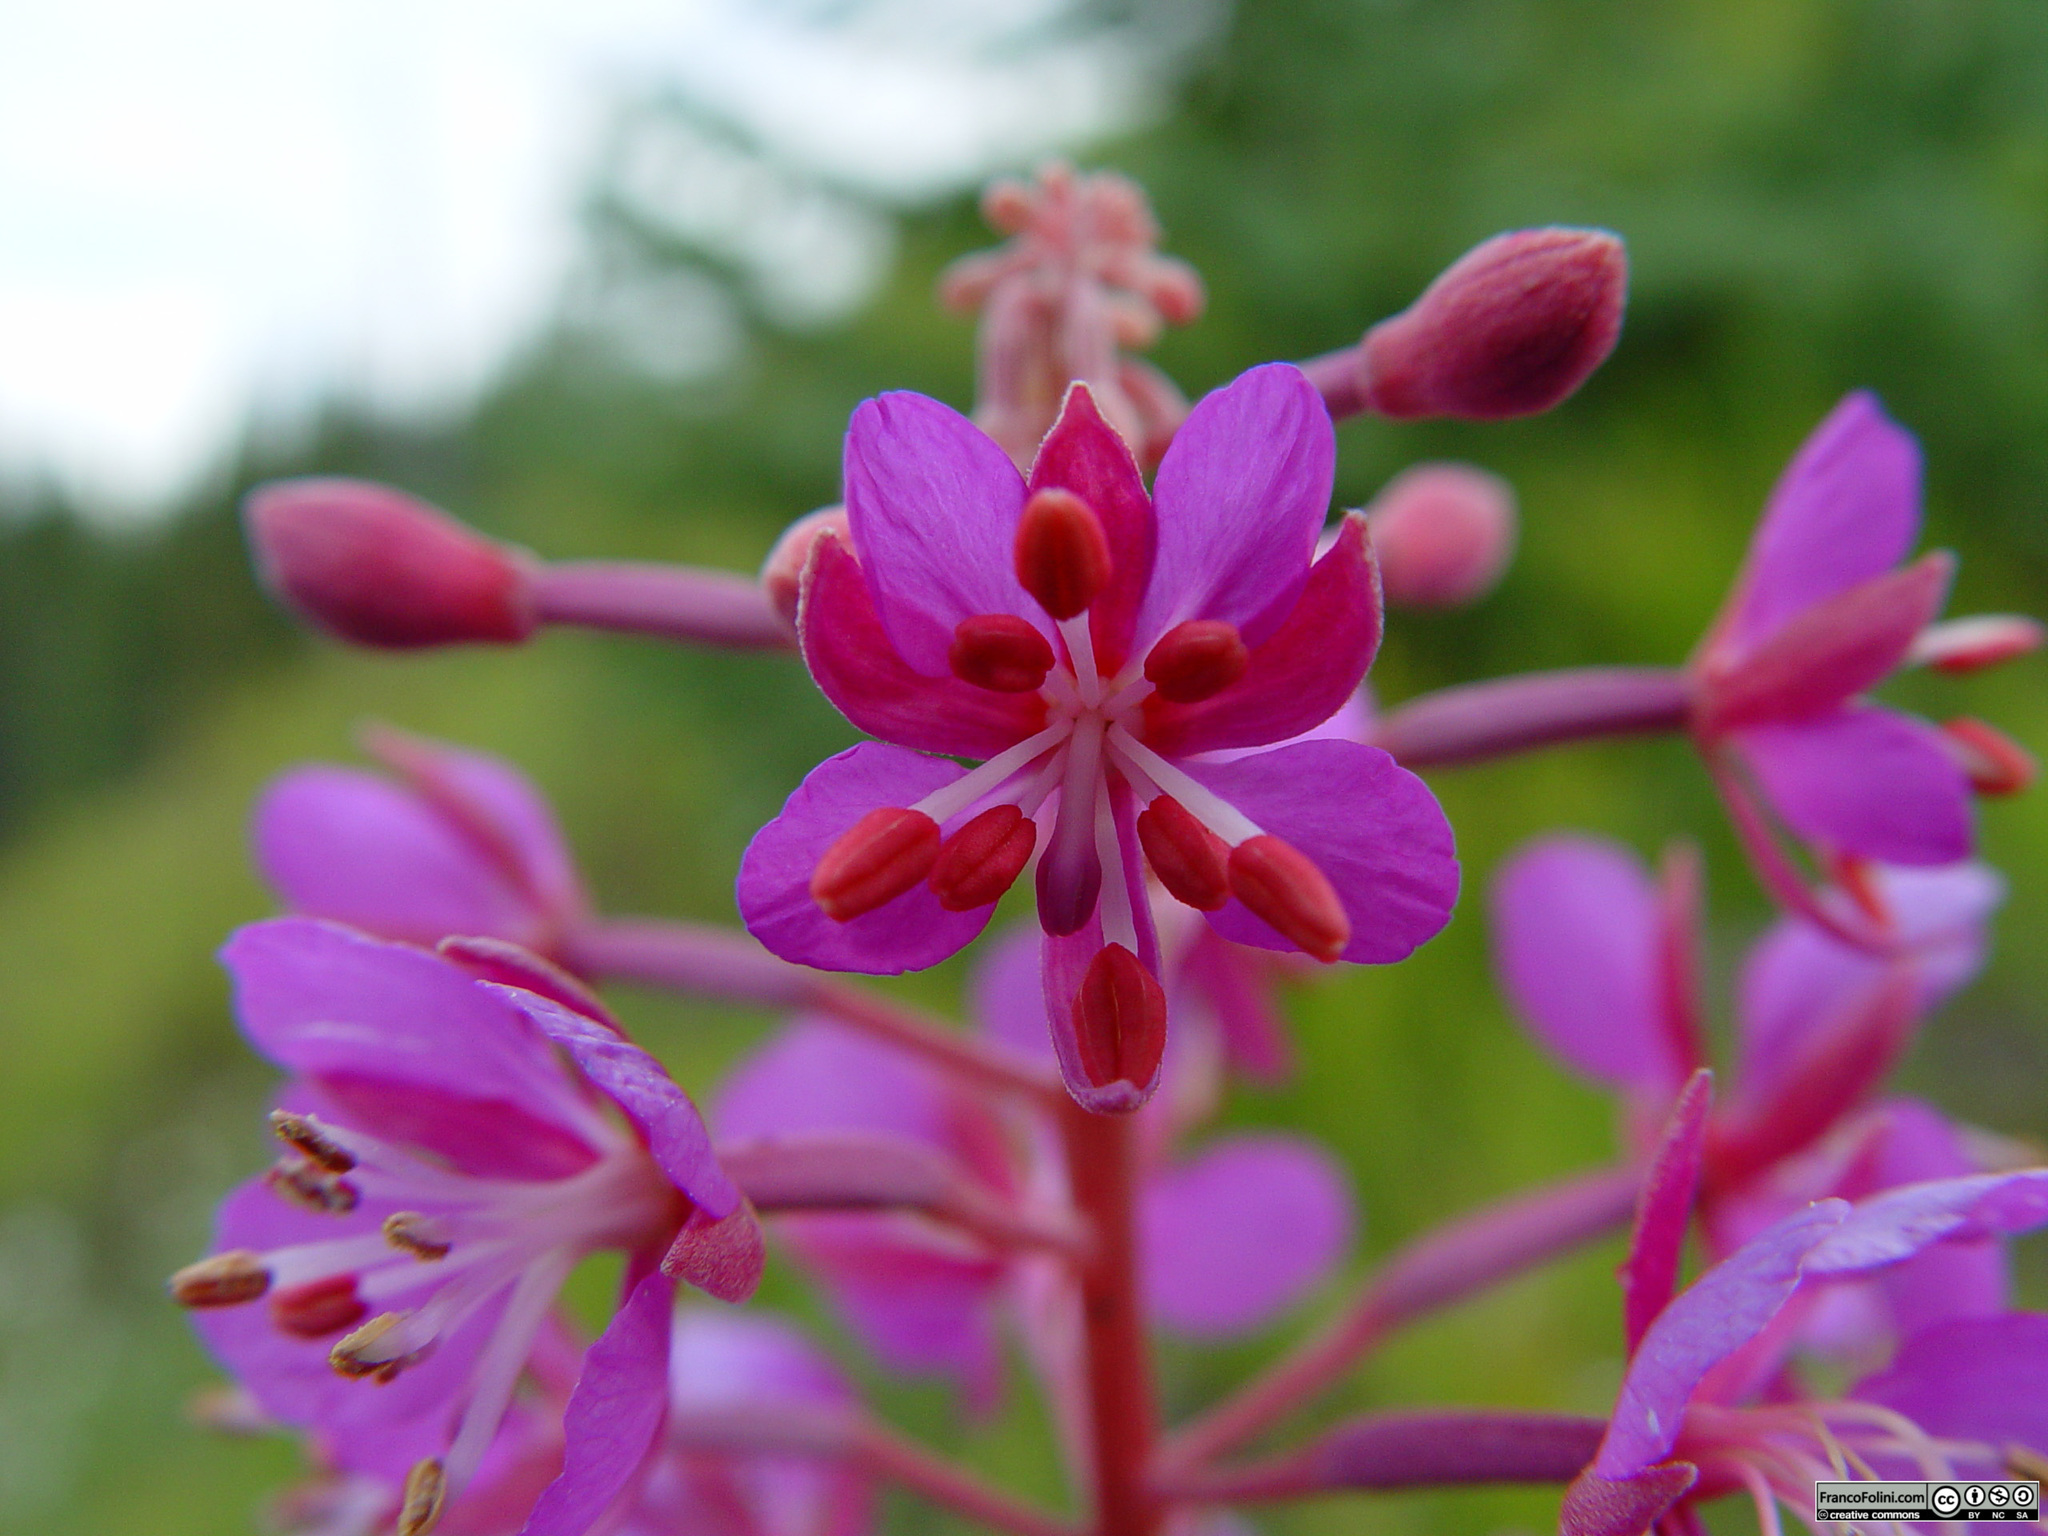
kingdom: Plantae
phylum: Tracheophyta
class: Magnoliopsida
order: Myrtales
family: Onagraceae
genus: Chamaenerion
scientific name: Chamaenerion angustifolium
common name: Fireweed
